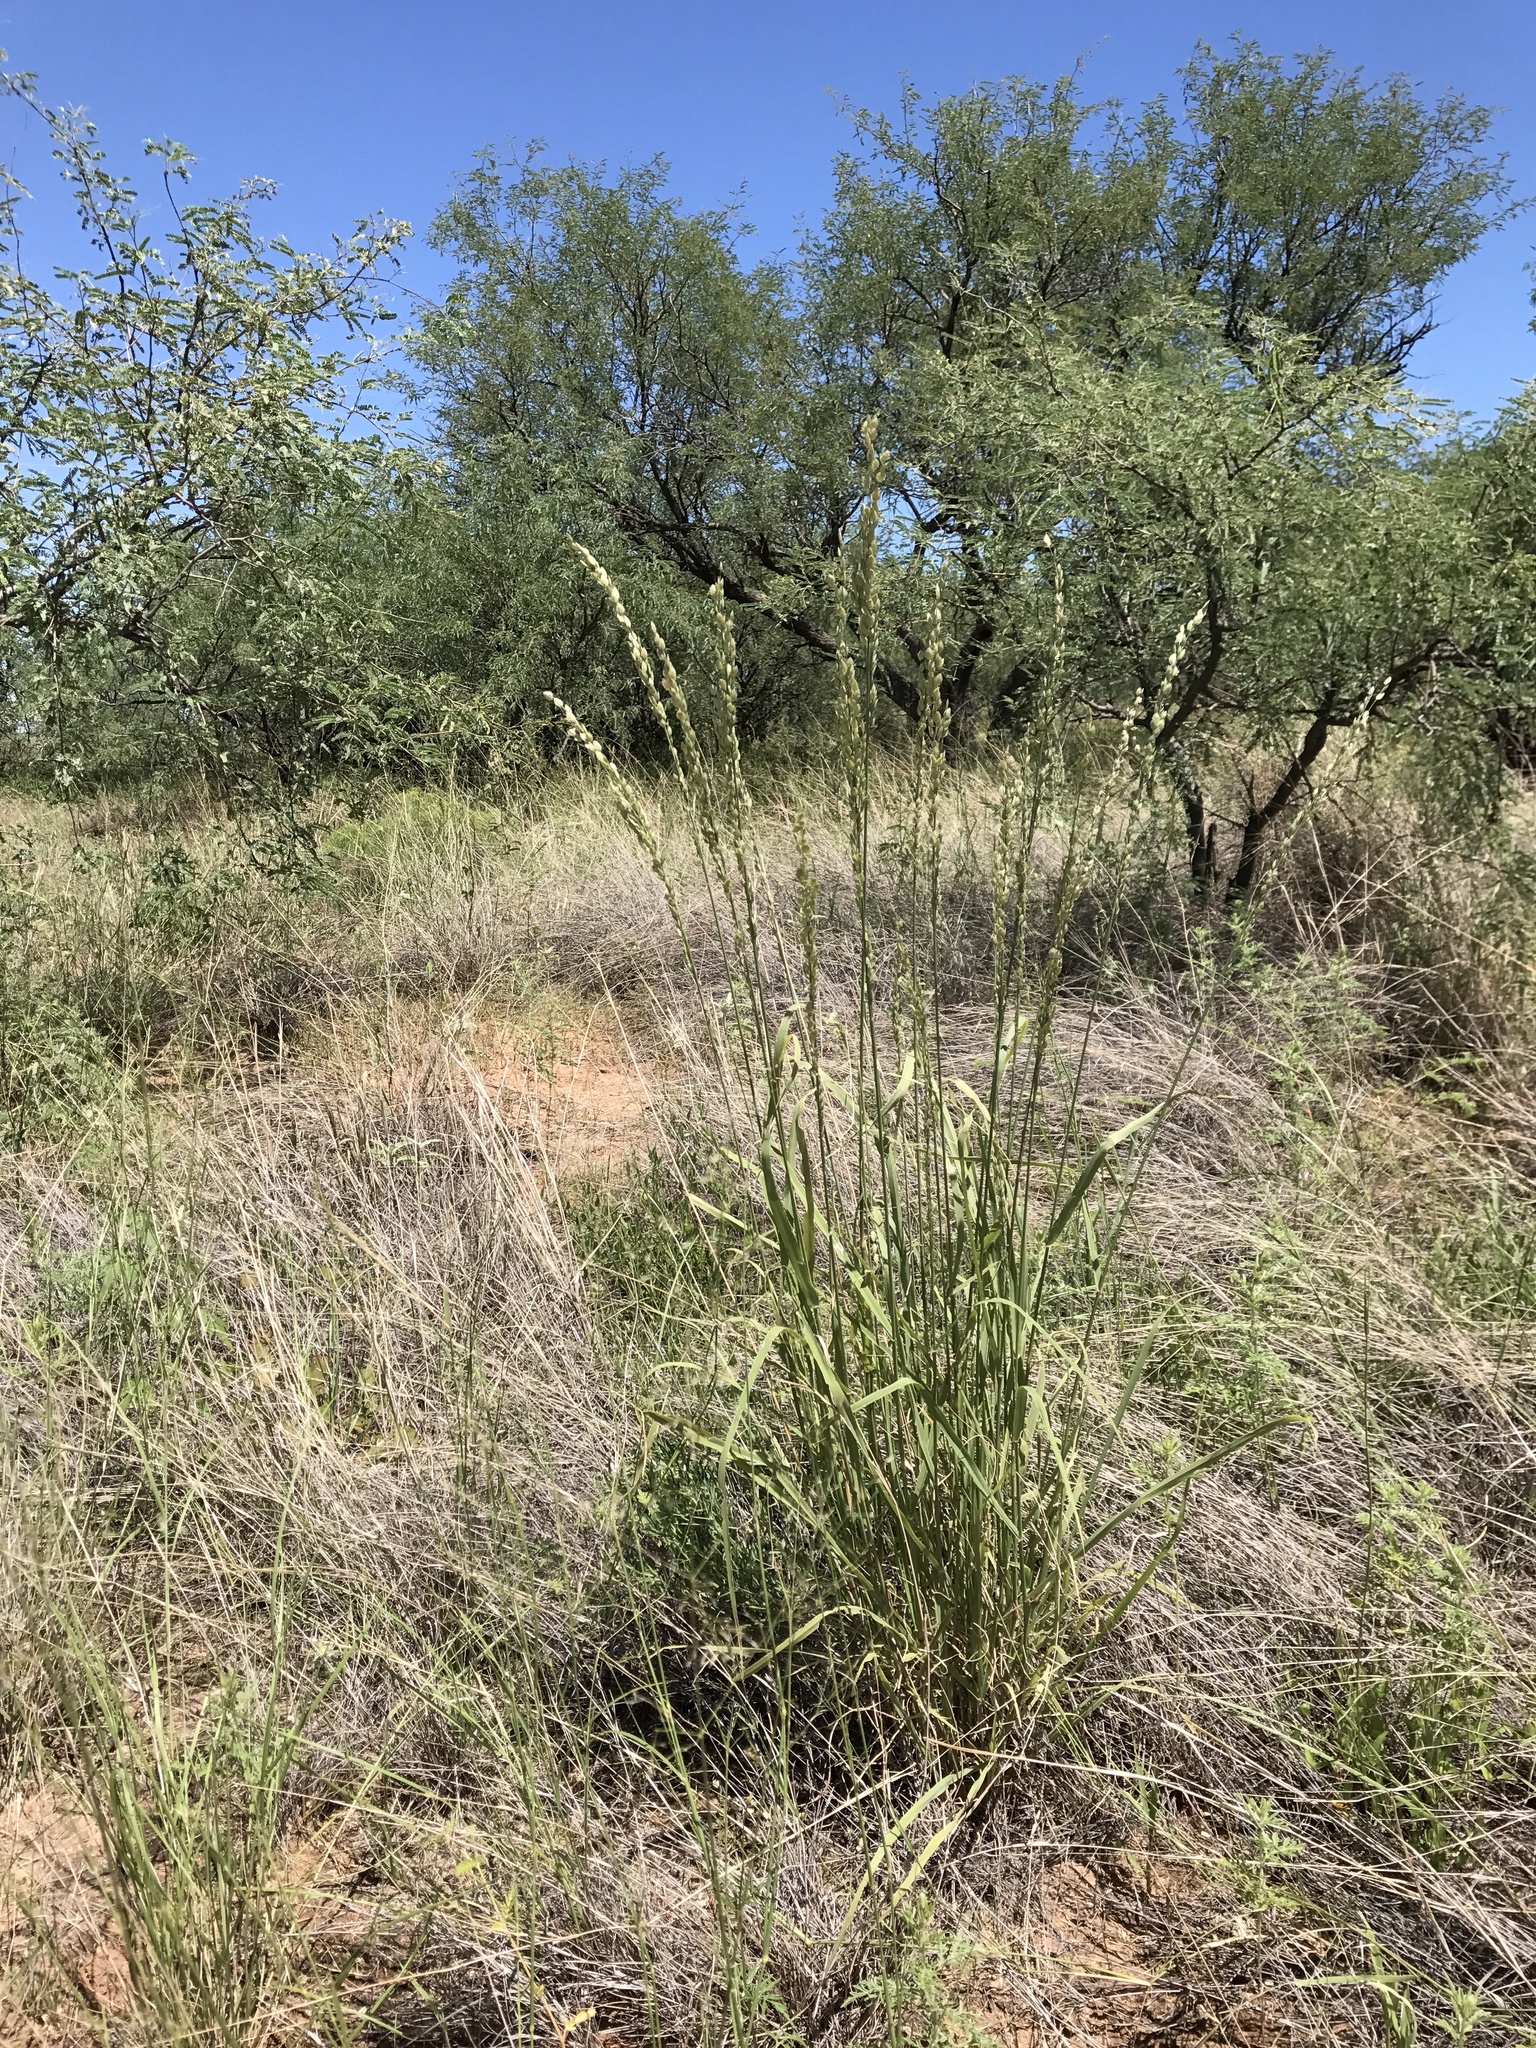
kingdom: Plantae
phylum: Tracheophyta
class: Liliopsida
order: Poales
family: Poaceae
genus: Eragrostis
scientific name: Eragrostis superba
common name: Wilman lovegrass
